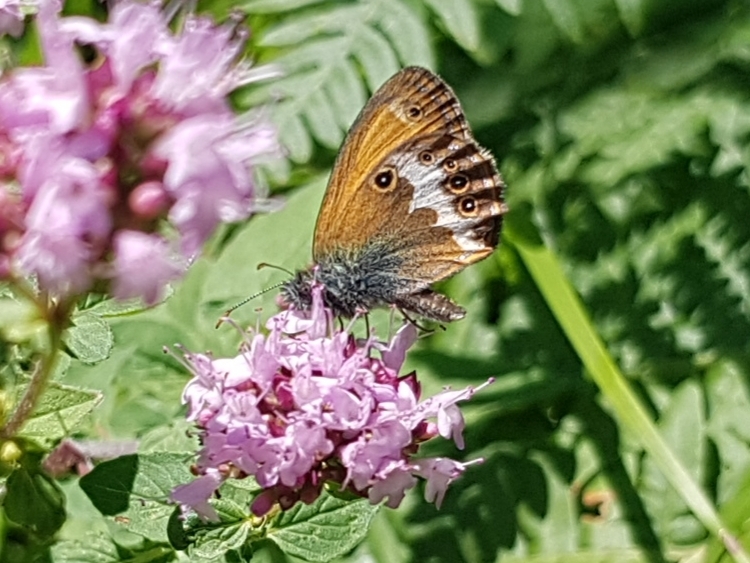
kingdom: Animalia
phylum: Arthropoda
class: Insecta
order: Lepidoptera
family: Nymphalidae
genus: Coenonympha
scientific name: Coenonympha arcania
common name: Pearly heath
